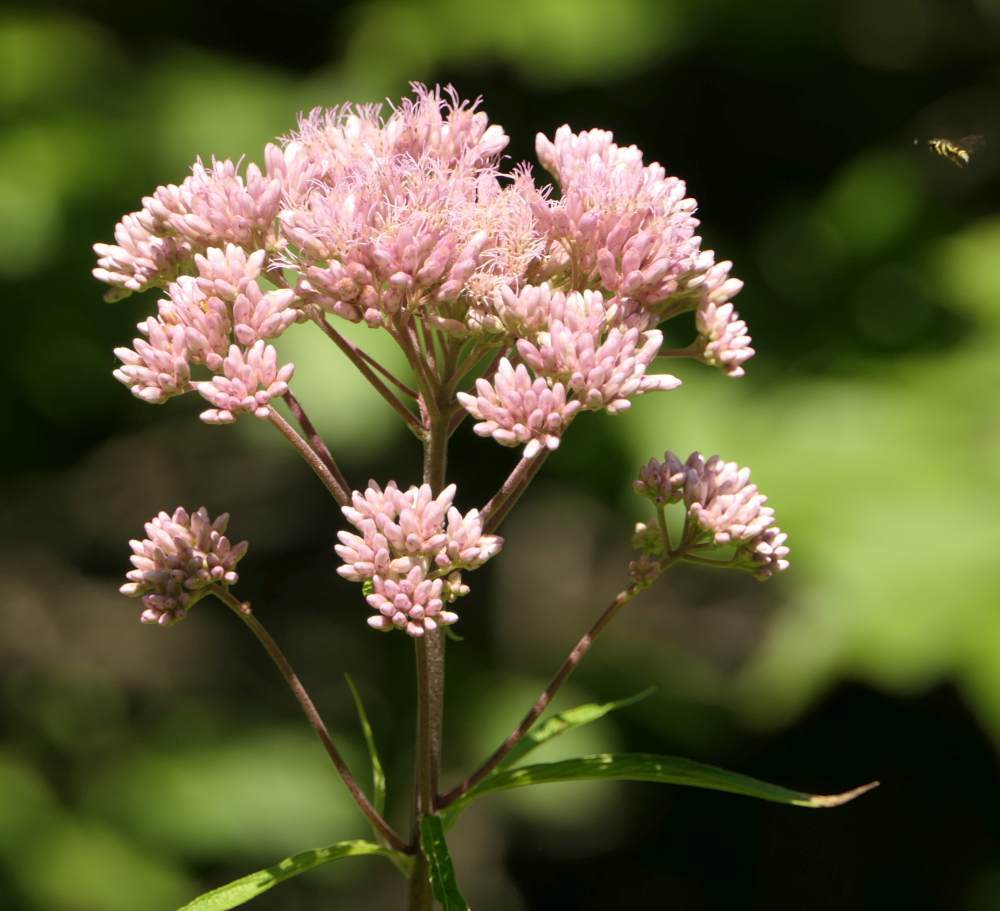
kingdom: Plantae
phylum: Tracheophyta
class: Magnoliopsida
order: Asterales
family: Asteraceae
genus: Eutrochium
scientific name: Eutrochium maculatum
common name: Spotted joe pye weed
